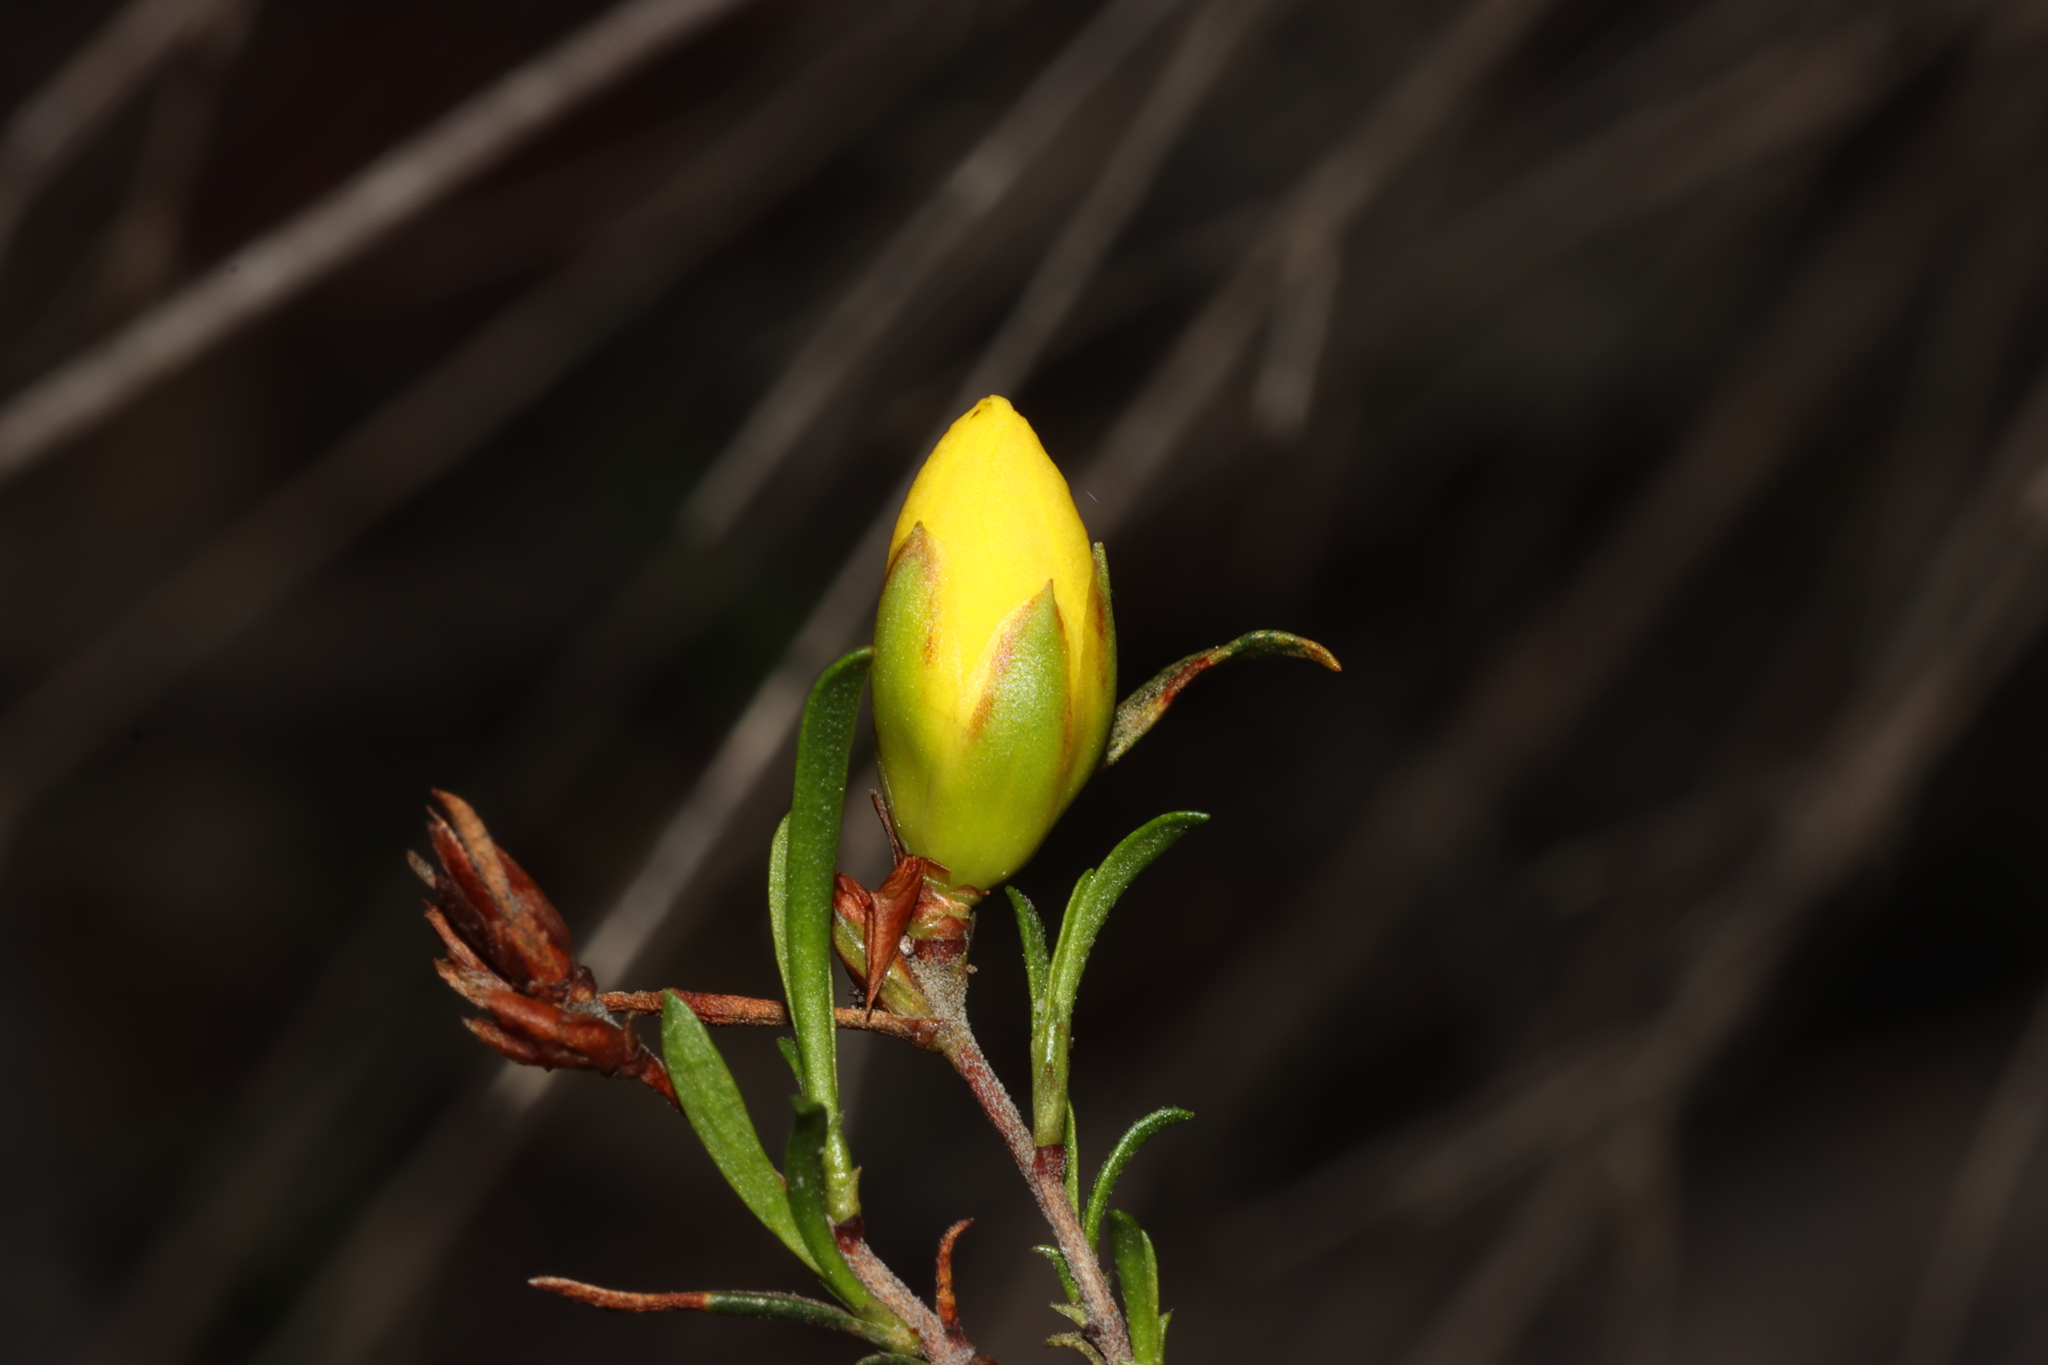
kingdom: Plantae
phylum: Tracheophyta
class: Magnoliopsida
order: Dilleniales
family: Dilleniaceae
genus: Hibbertia
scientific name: Hibbertia virgata
